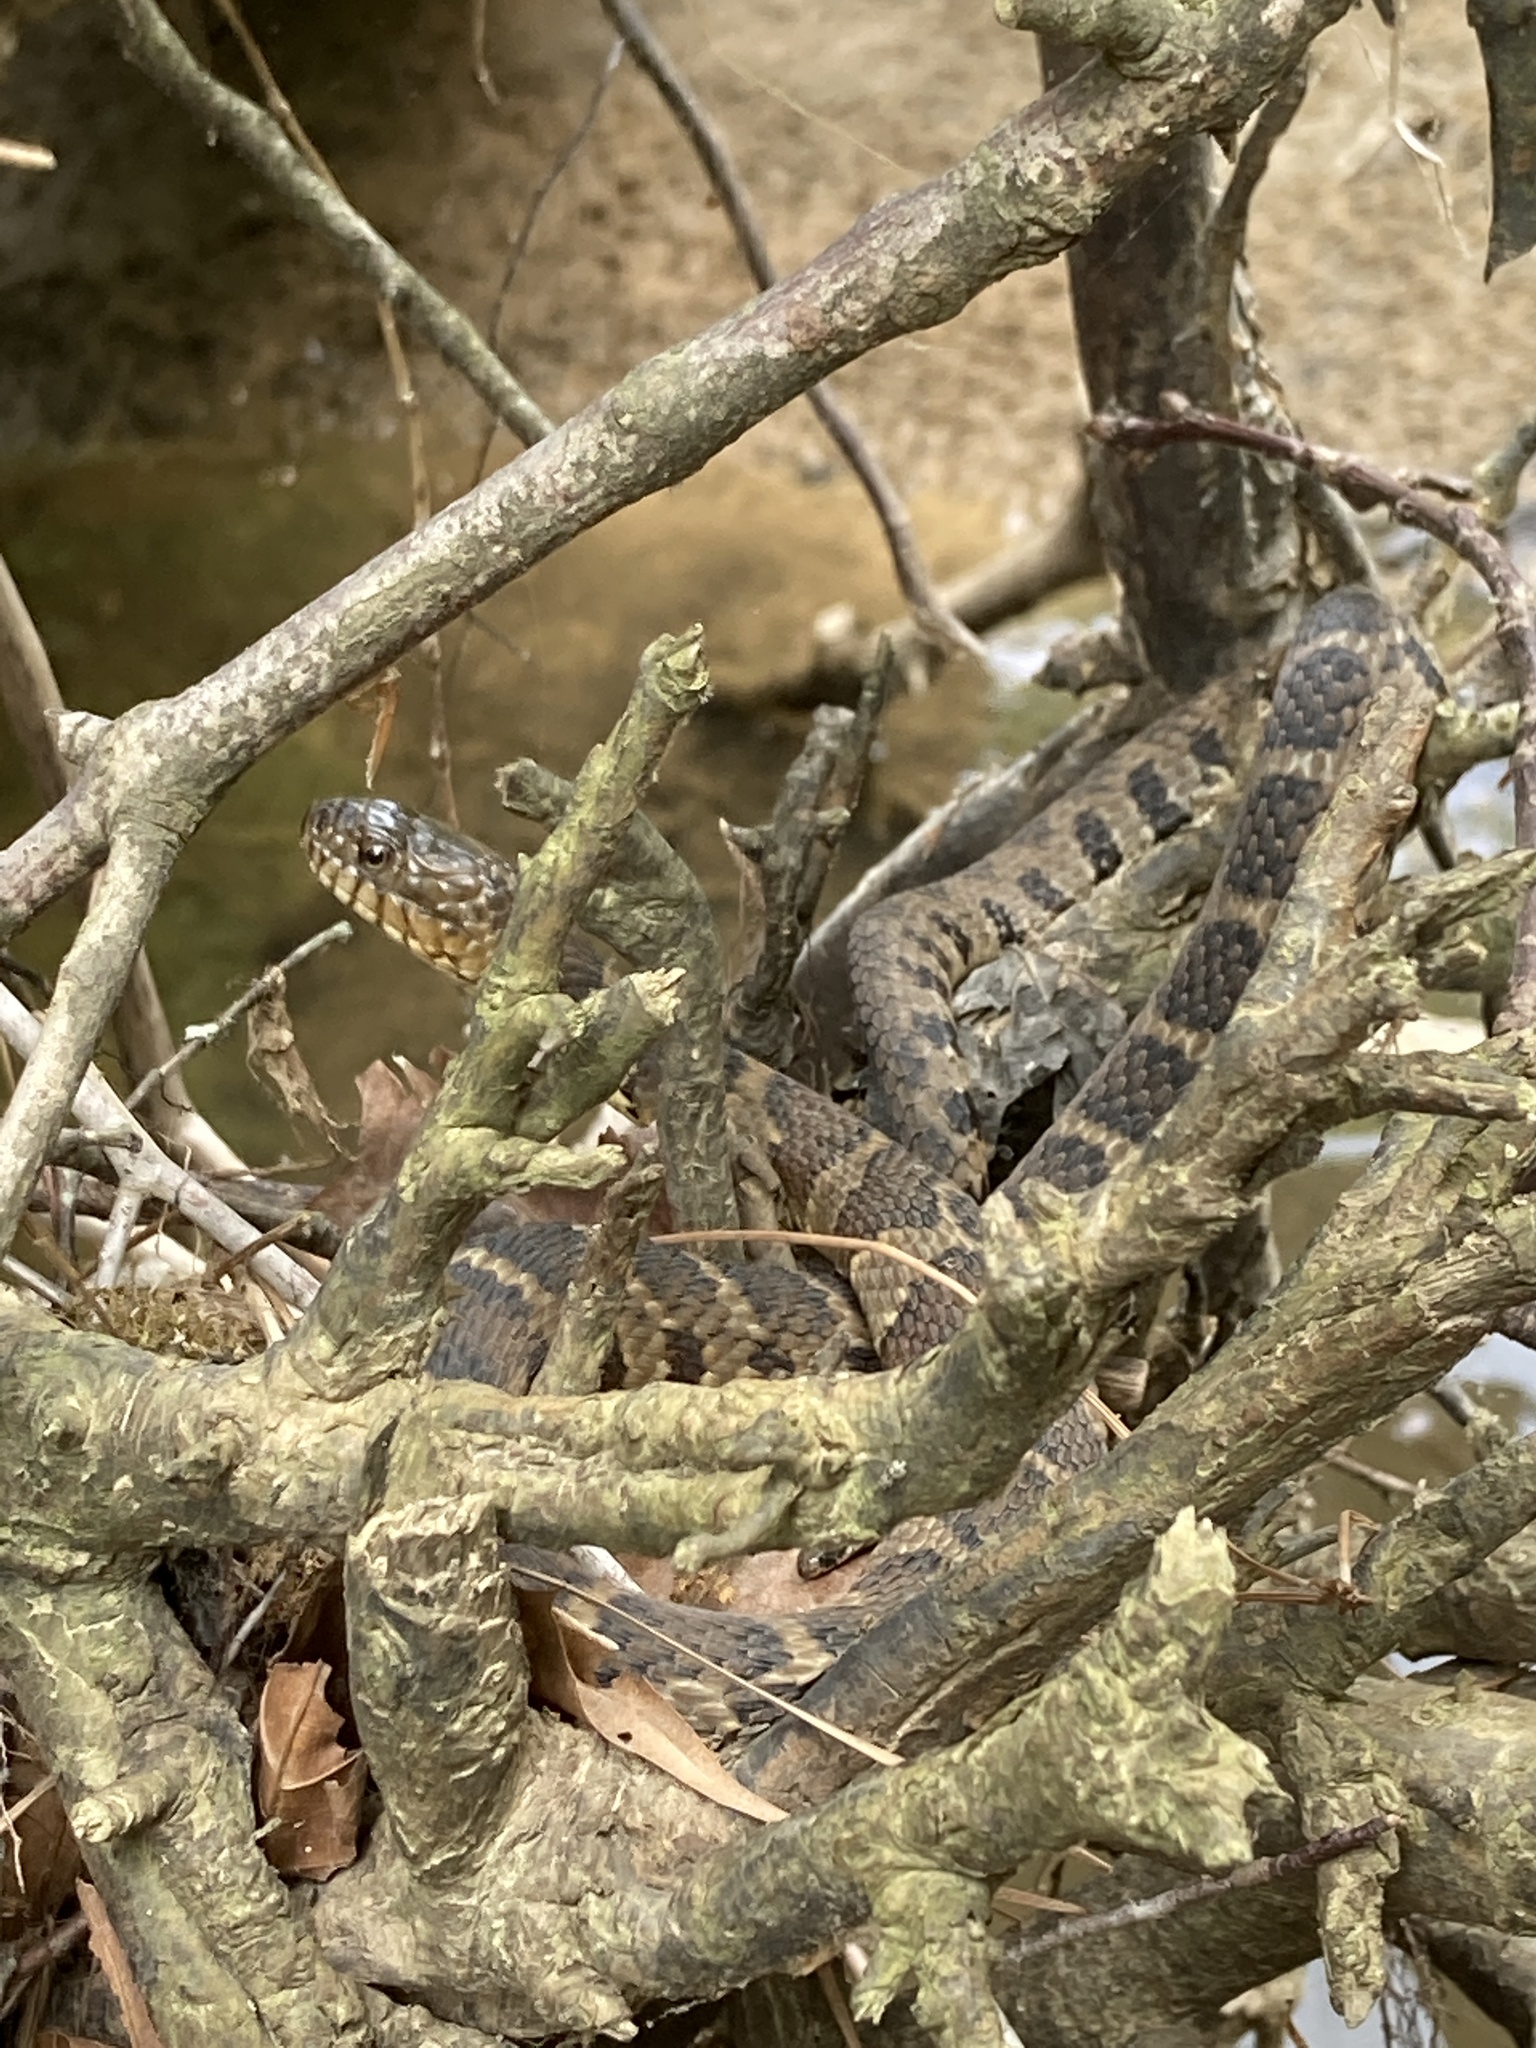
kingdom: Animalia
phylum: Chordata
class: Squamata
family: Colubridae
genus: Nerodia
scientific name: Nerodia sipedon
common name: Northern water snake
